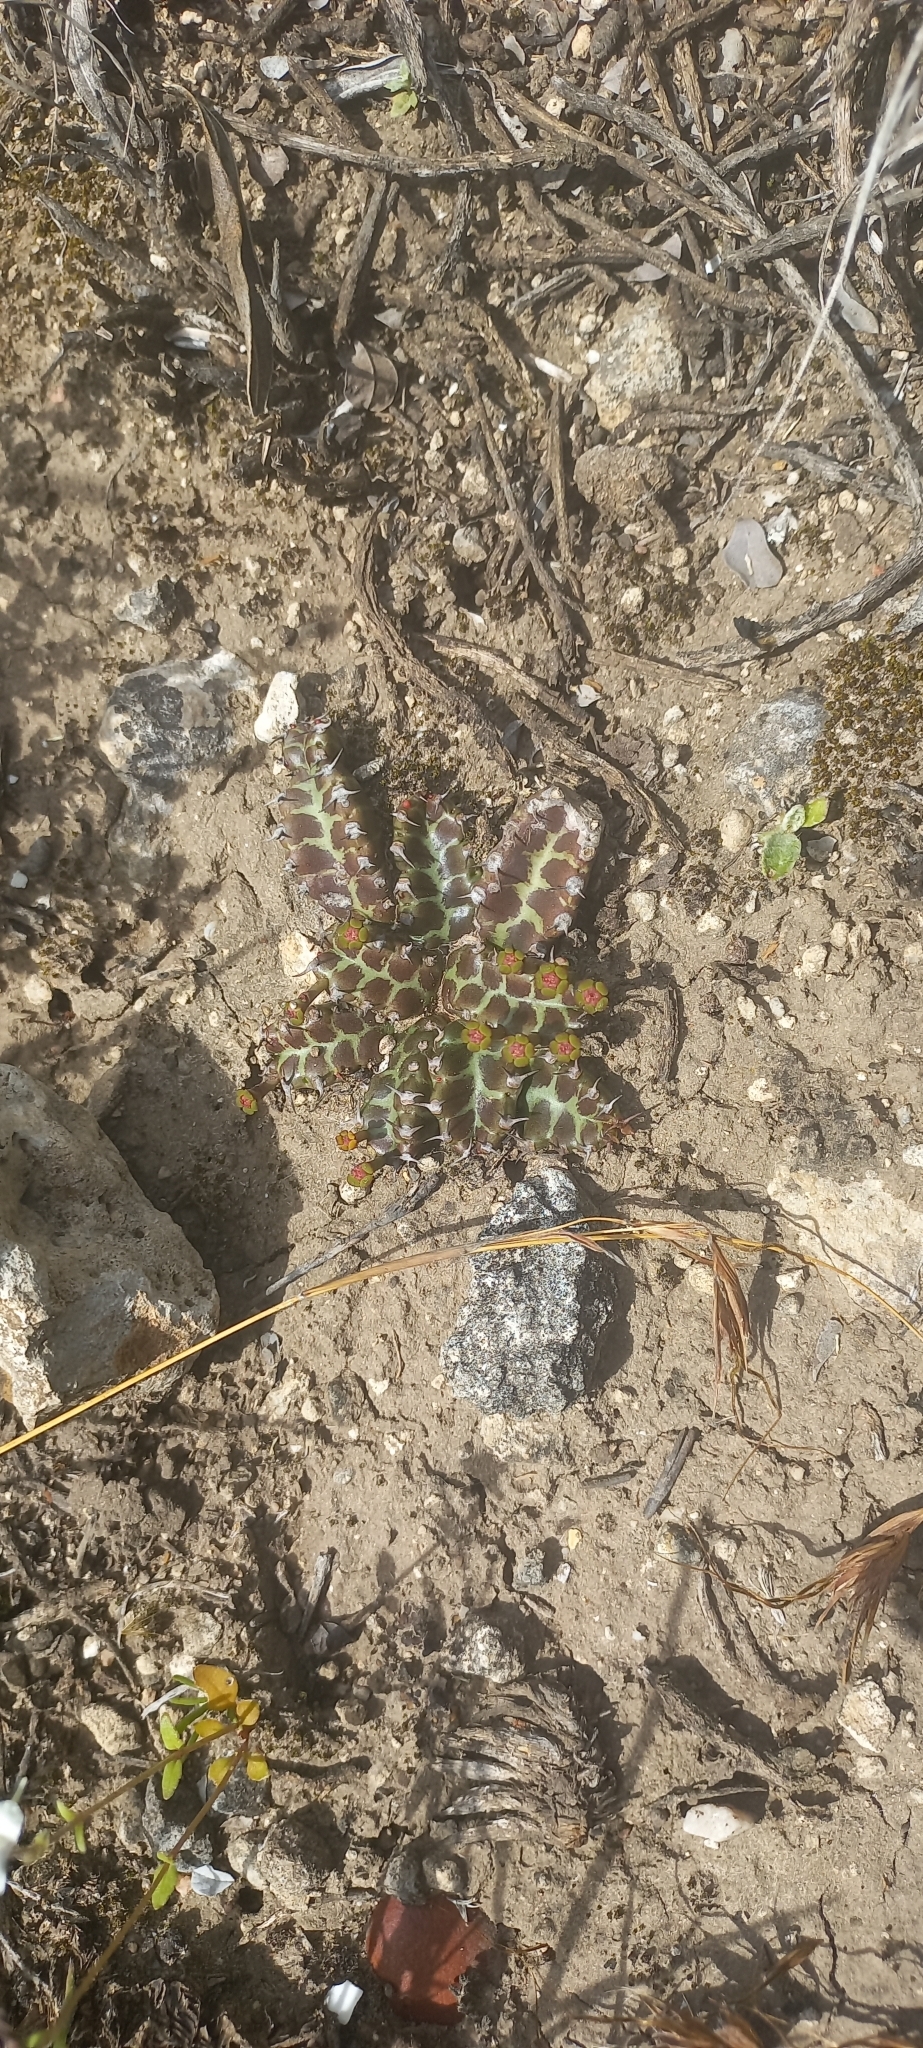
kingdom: Plantae
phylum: Tracheophyta
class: Magnoliopsida
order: Malpighiales
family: Euphorbiaceae
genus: Euphorbia
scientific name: Euphorbia stellata
